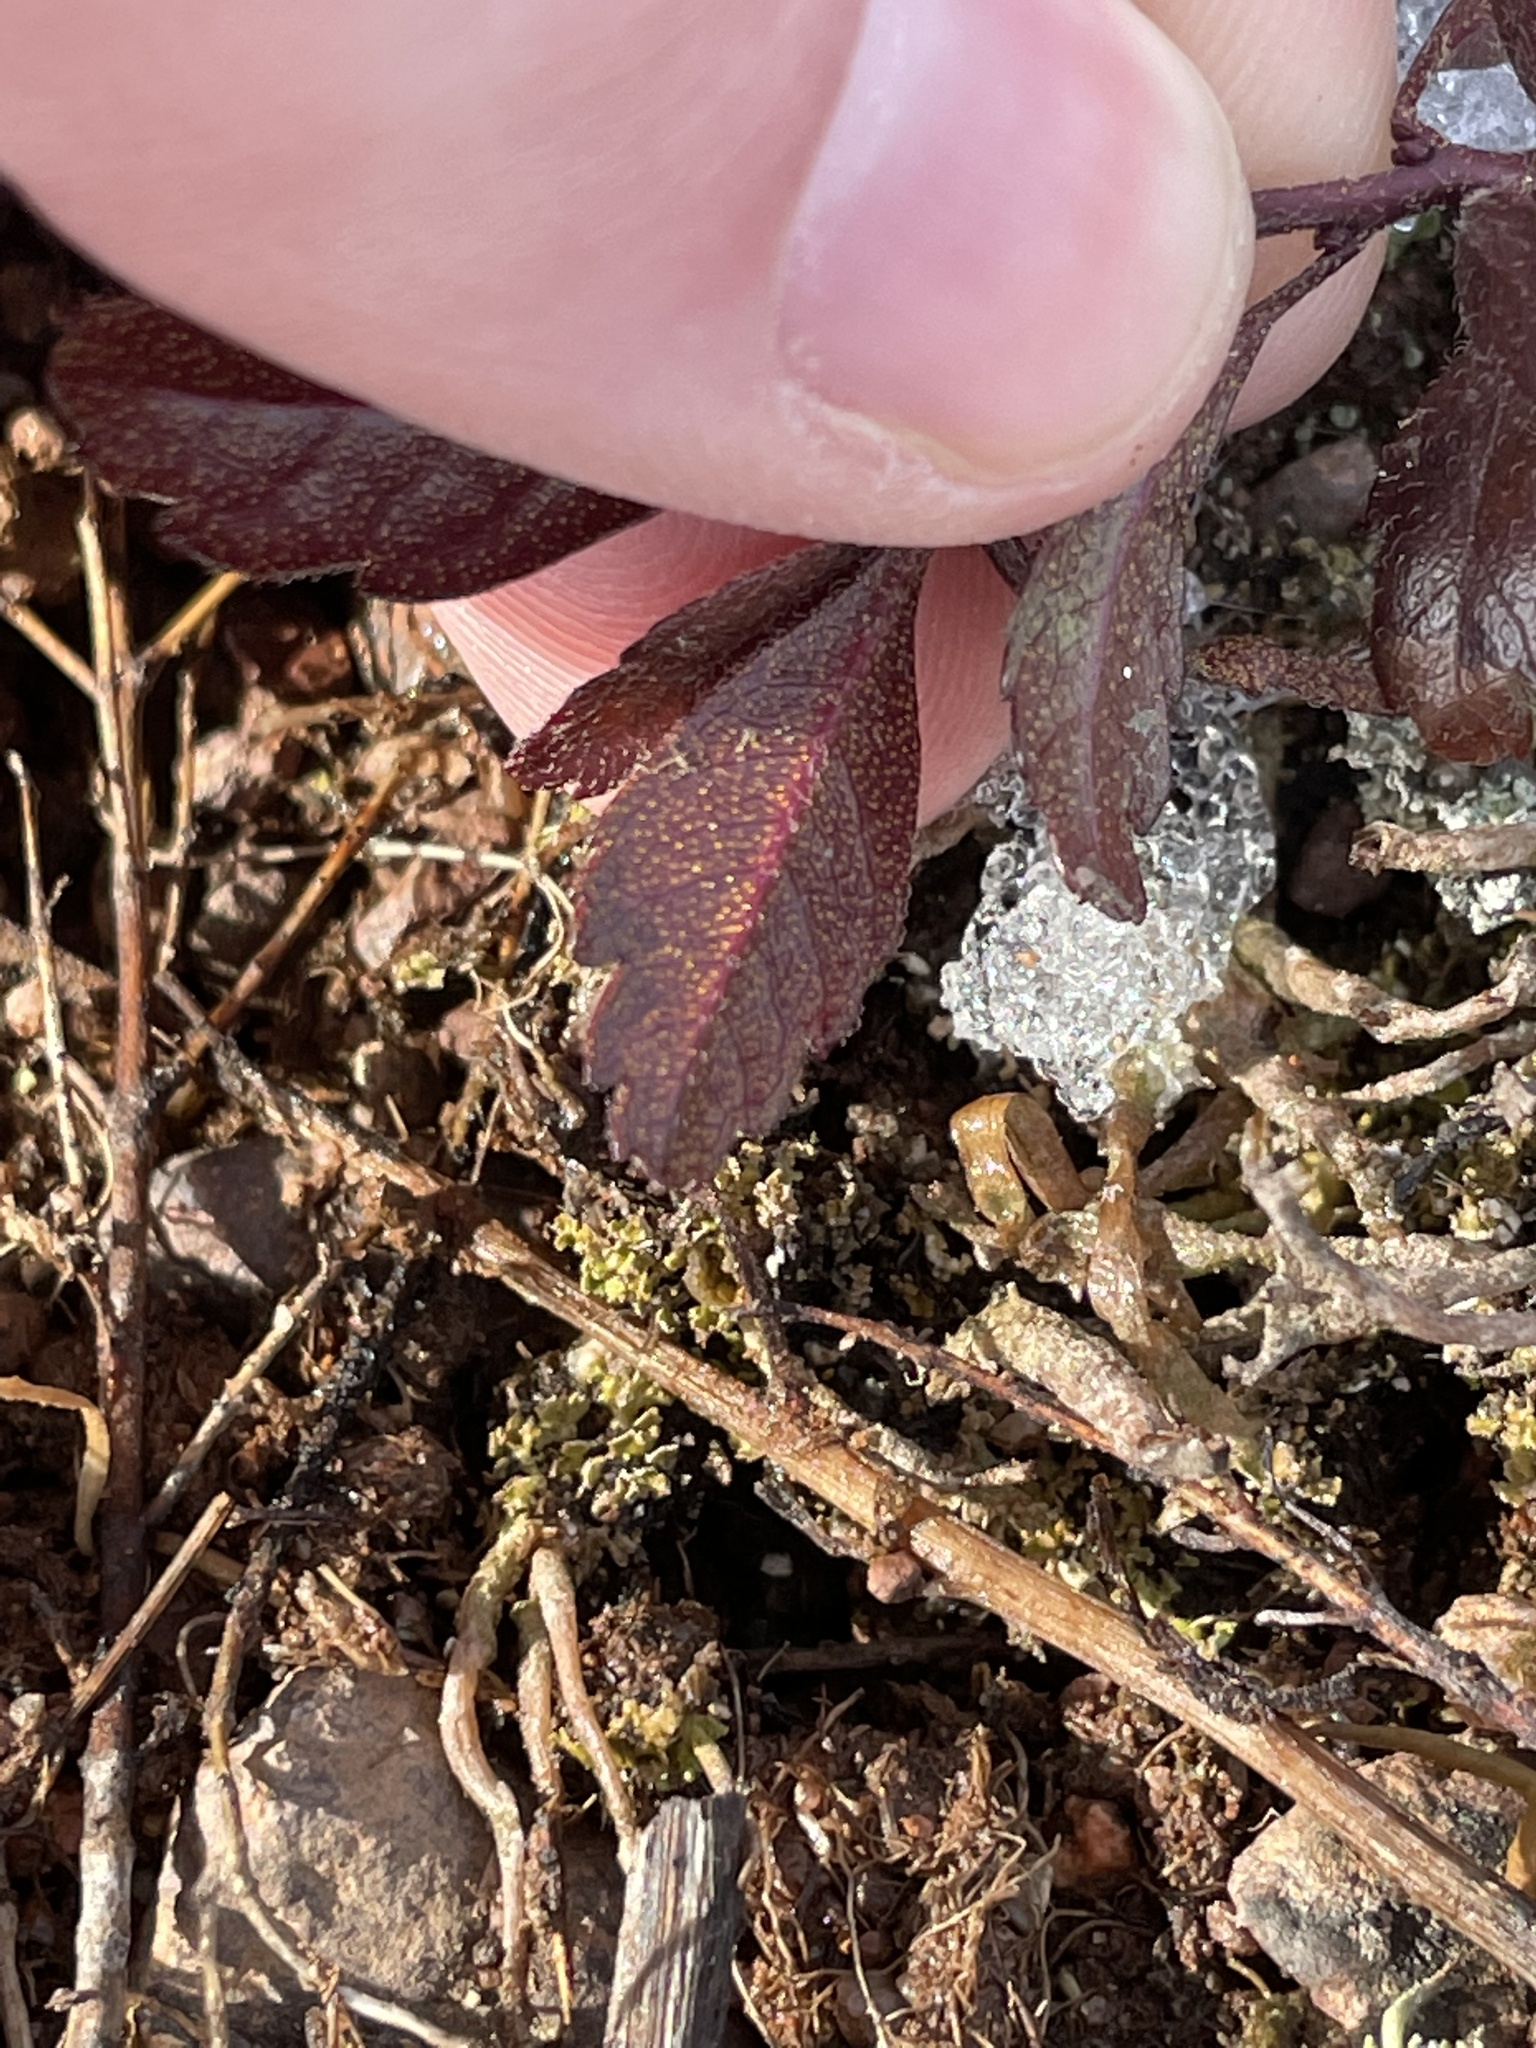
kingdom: Plantae
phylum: Tracheophyta
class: Magnoliopsida
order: Fagales
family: Myricaceae
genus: Morella
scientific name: Morella pensylvanica
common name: Northern bayberry
